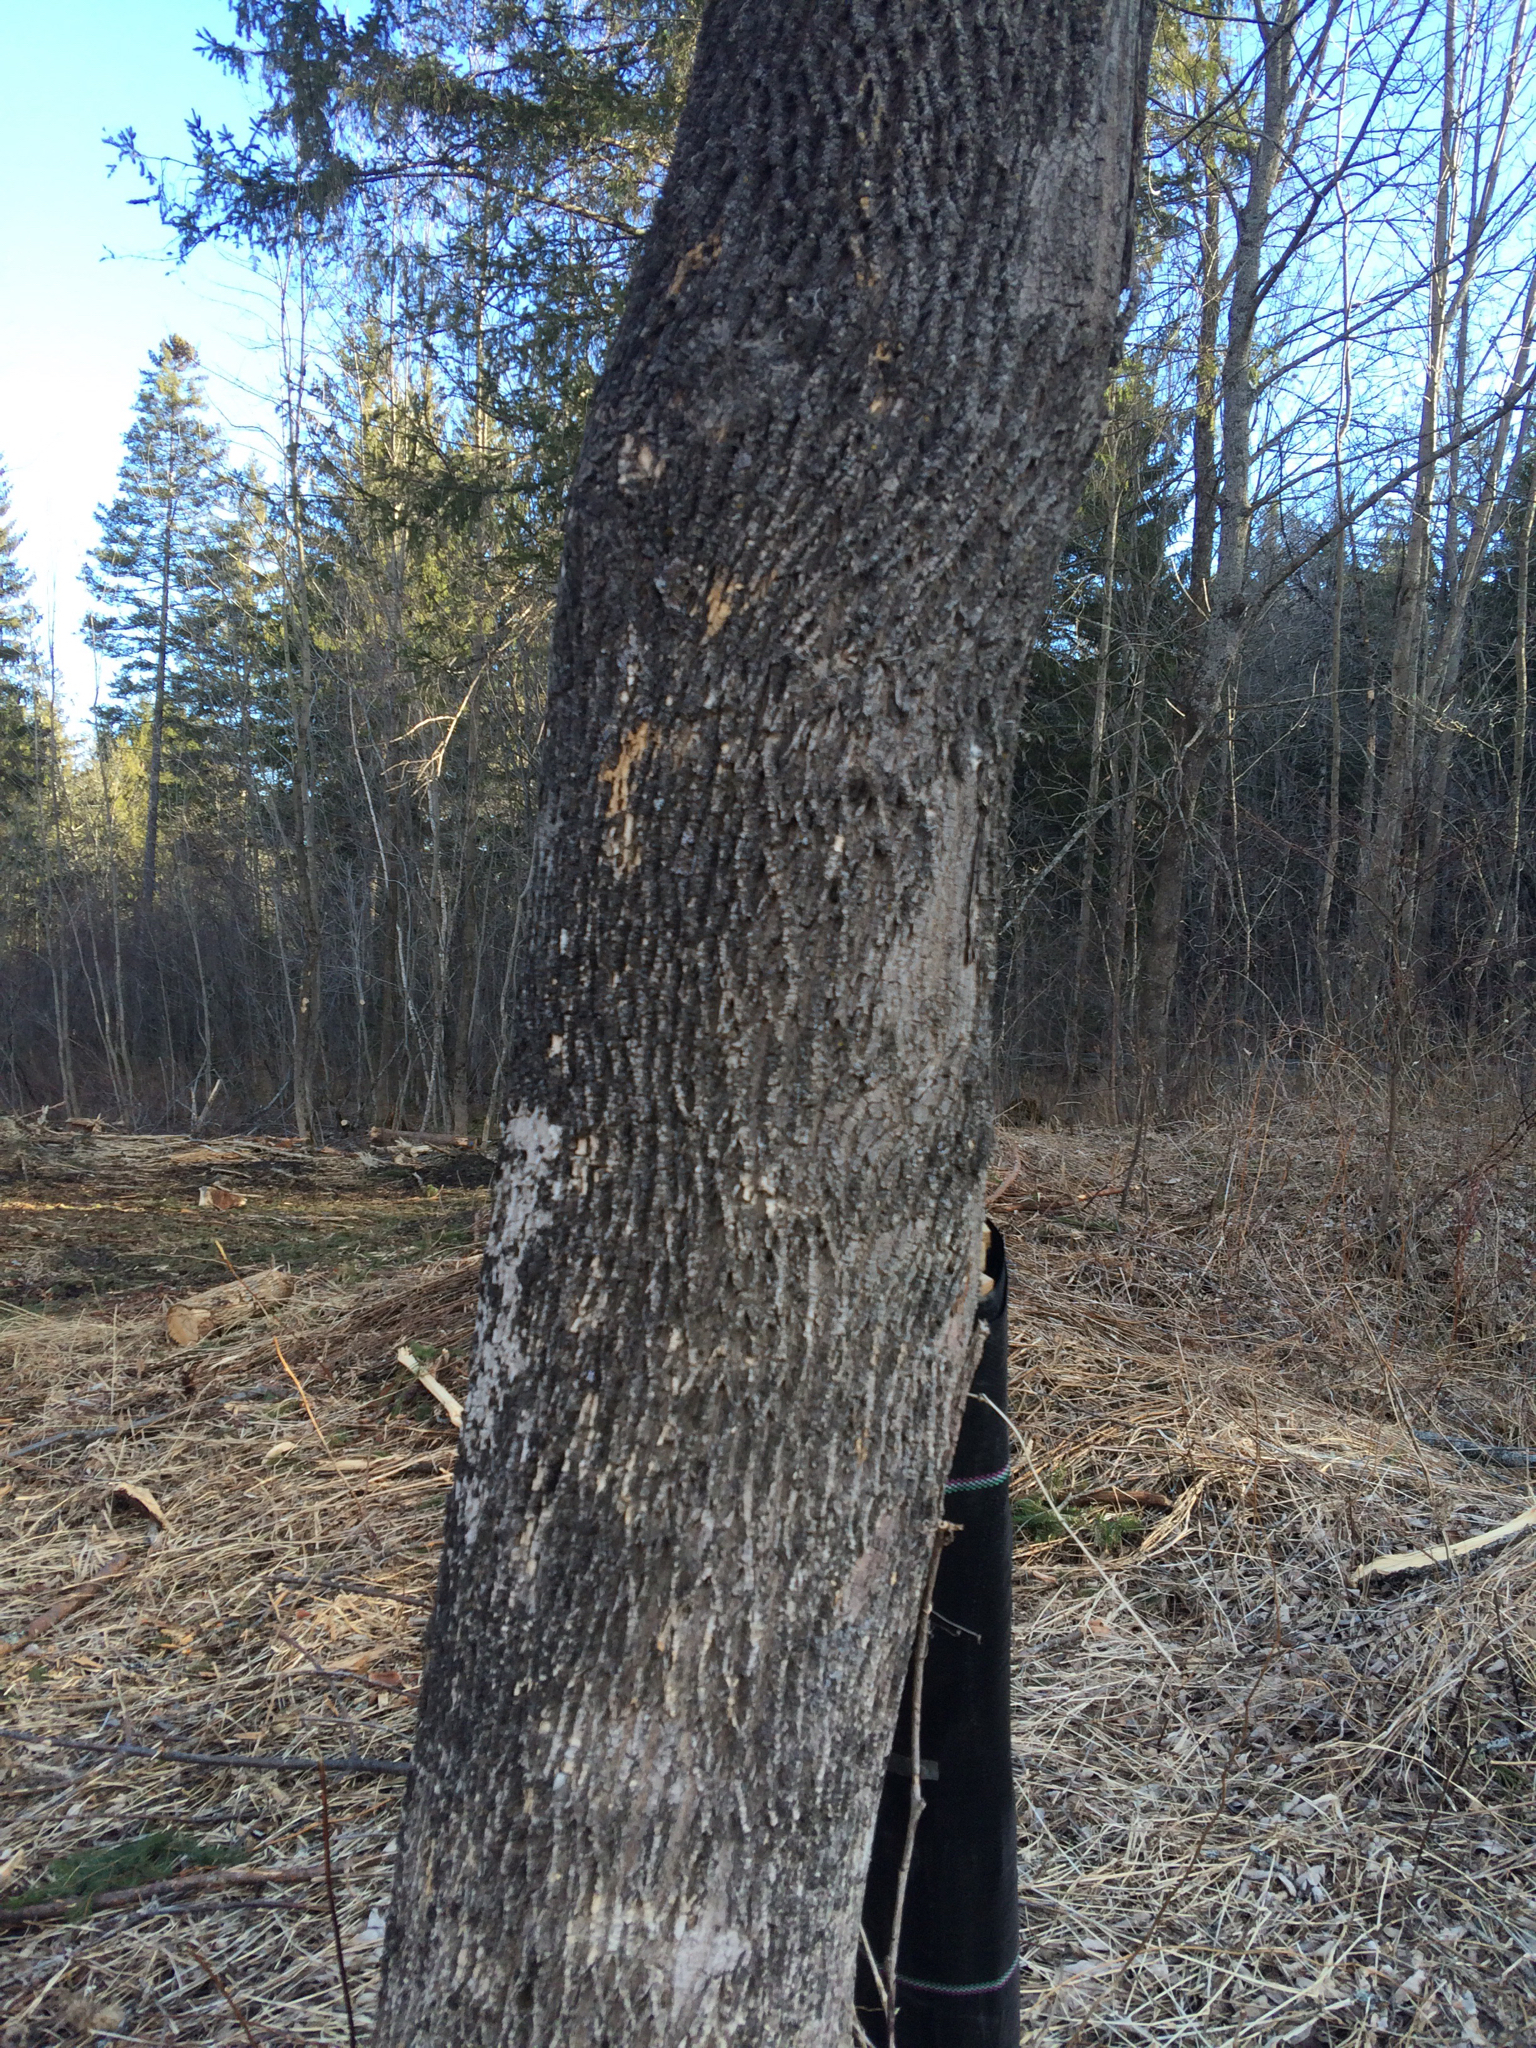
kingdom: Plantae
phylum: Tracheophyta
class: Magnoliopsida
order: Lamiales
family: Oleaceae
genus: Fraxinus
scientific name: Fraxinus americana
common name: White ash
